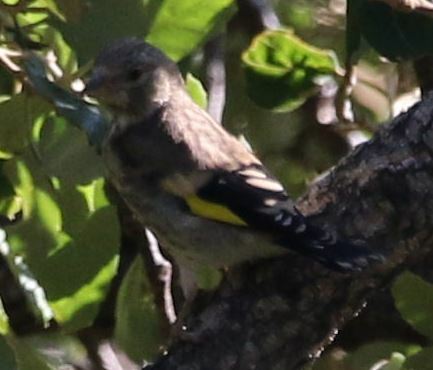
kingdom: Animalia
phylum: Chordata
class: Aves
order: Passeriformes
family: Fringillidae
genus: Carduelis
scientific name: Carduelis carduelis
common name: European goldfinch
